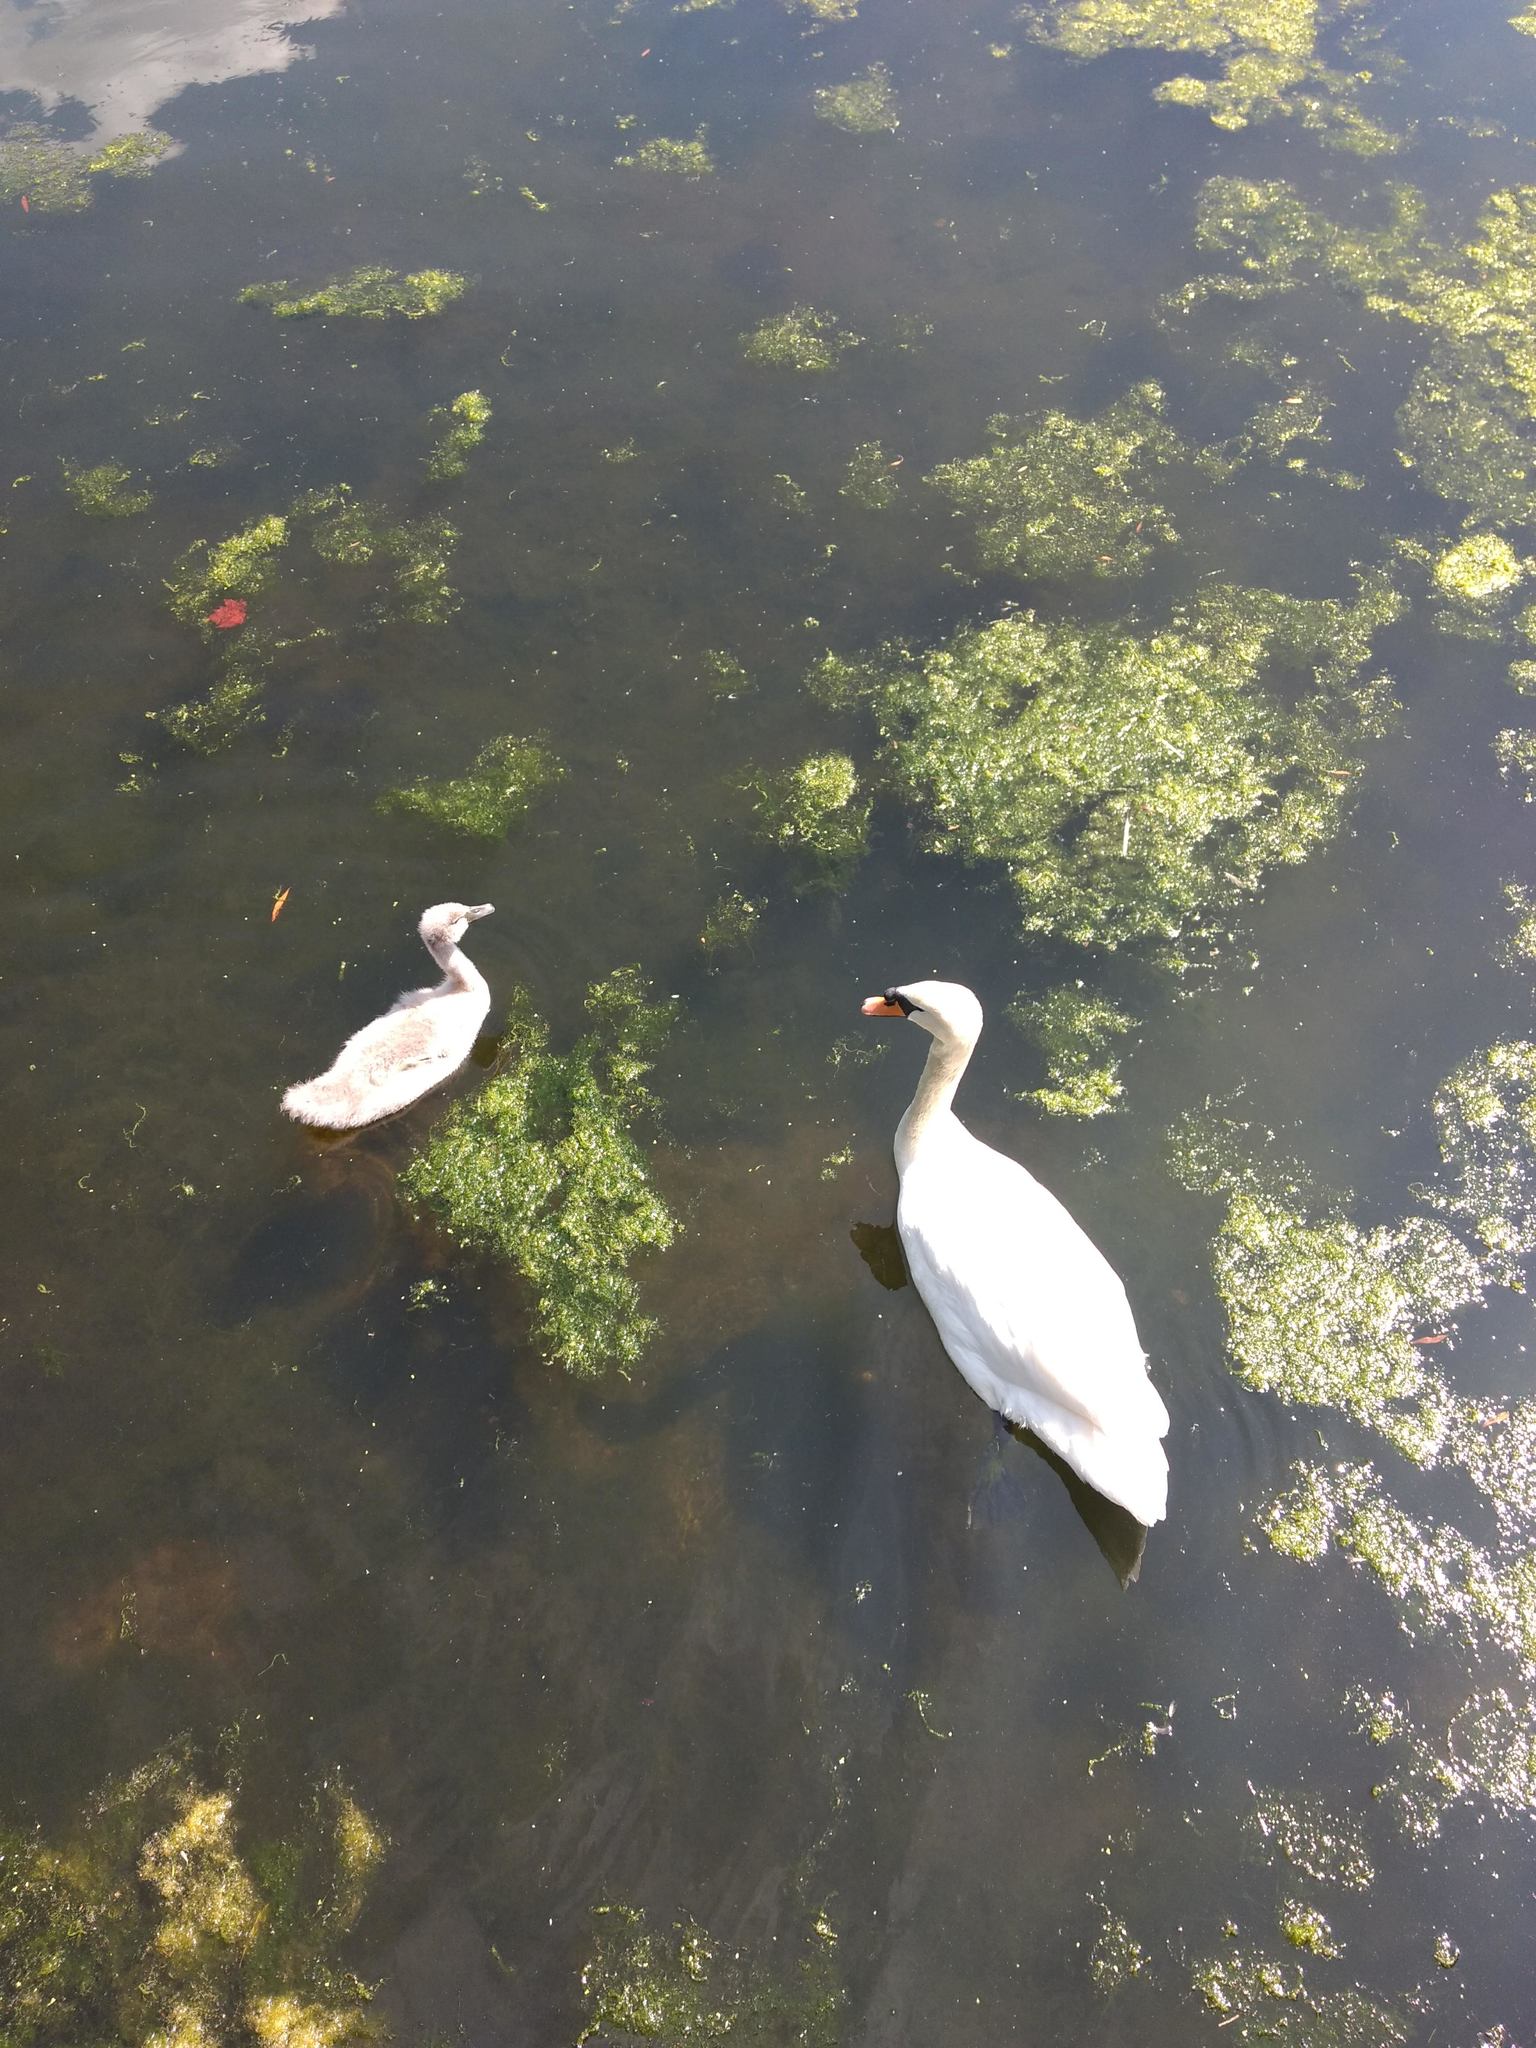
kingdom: Animalia
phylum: Chordata
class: Aves
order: Anseriformes
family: Anatidae
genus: Cygnus
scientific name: Cygnus olor
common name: Mute swan
